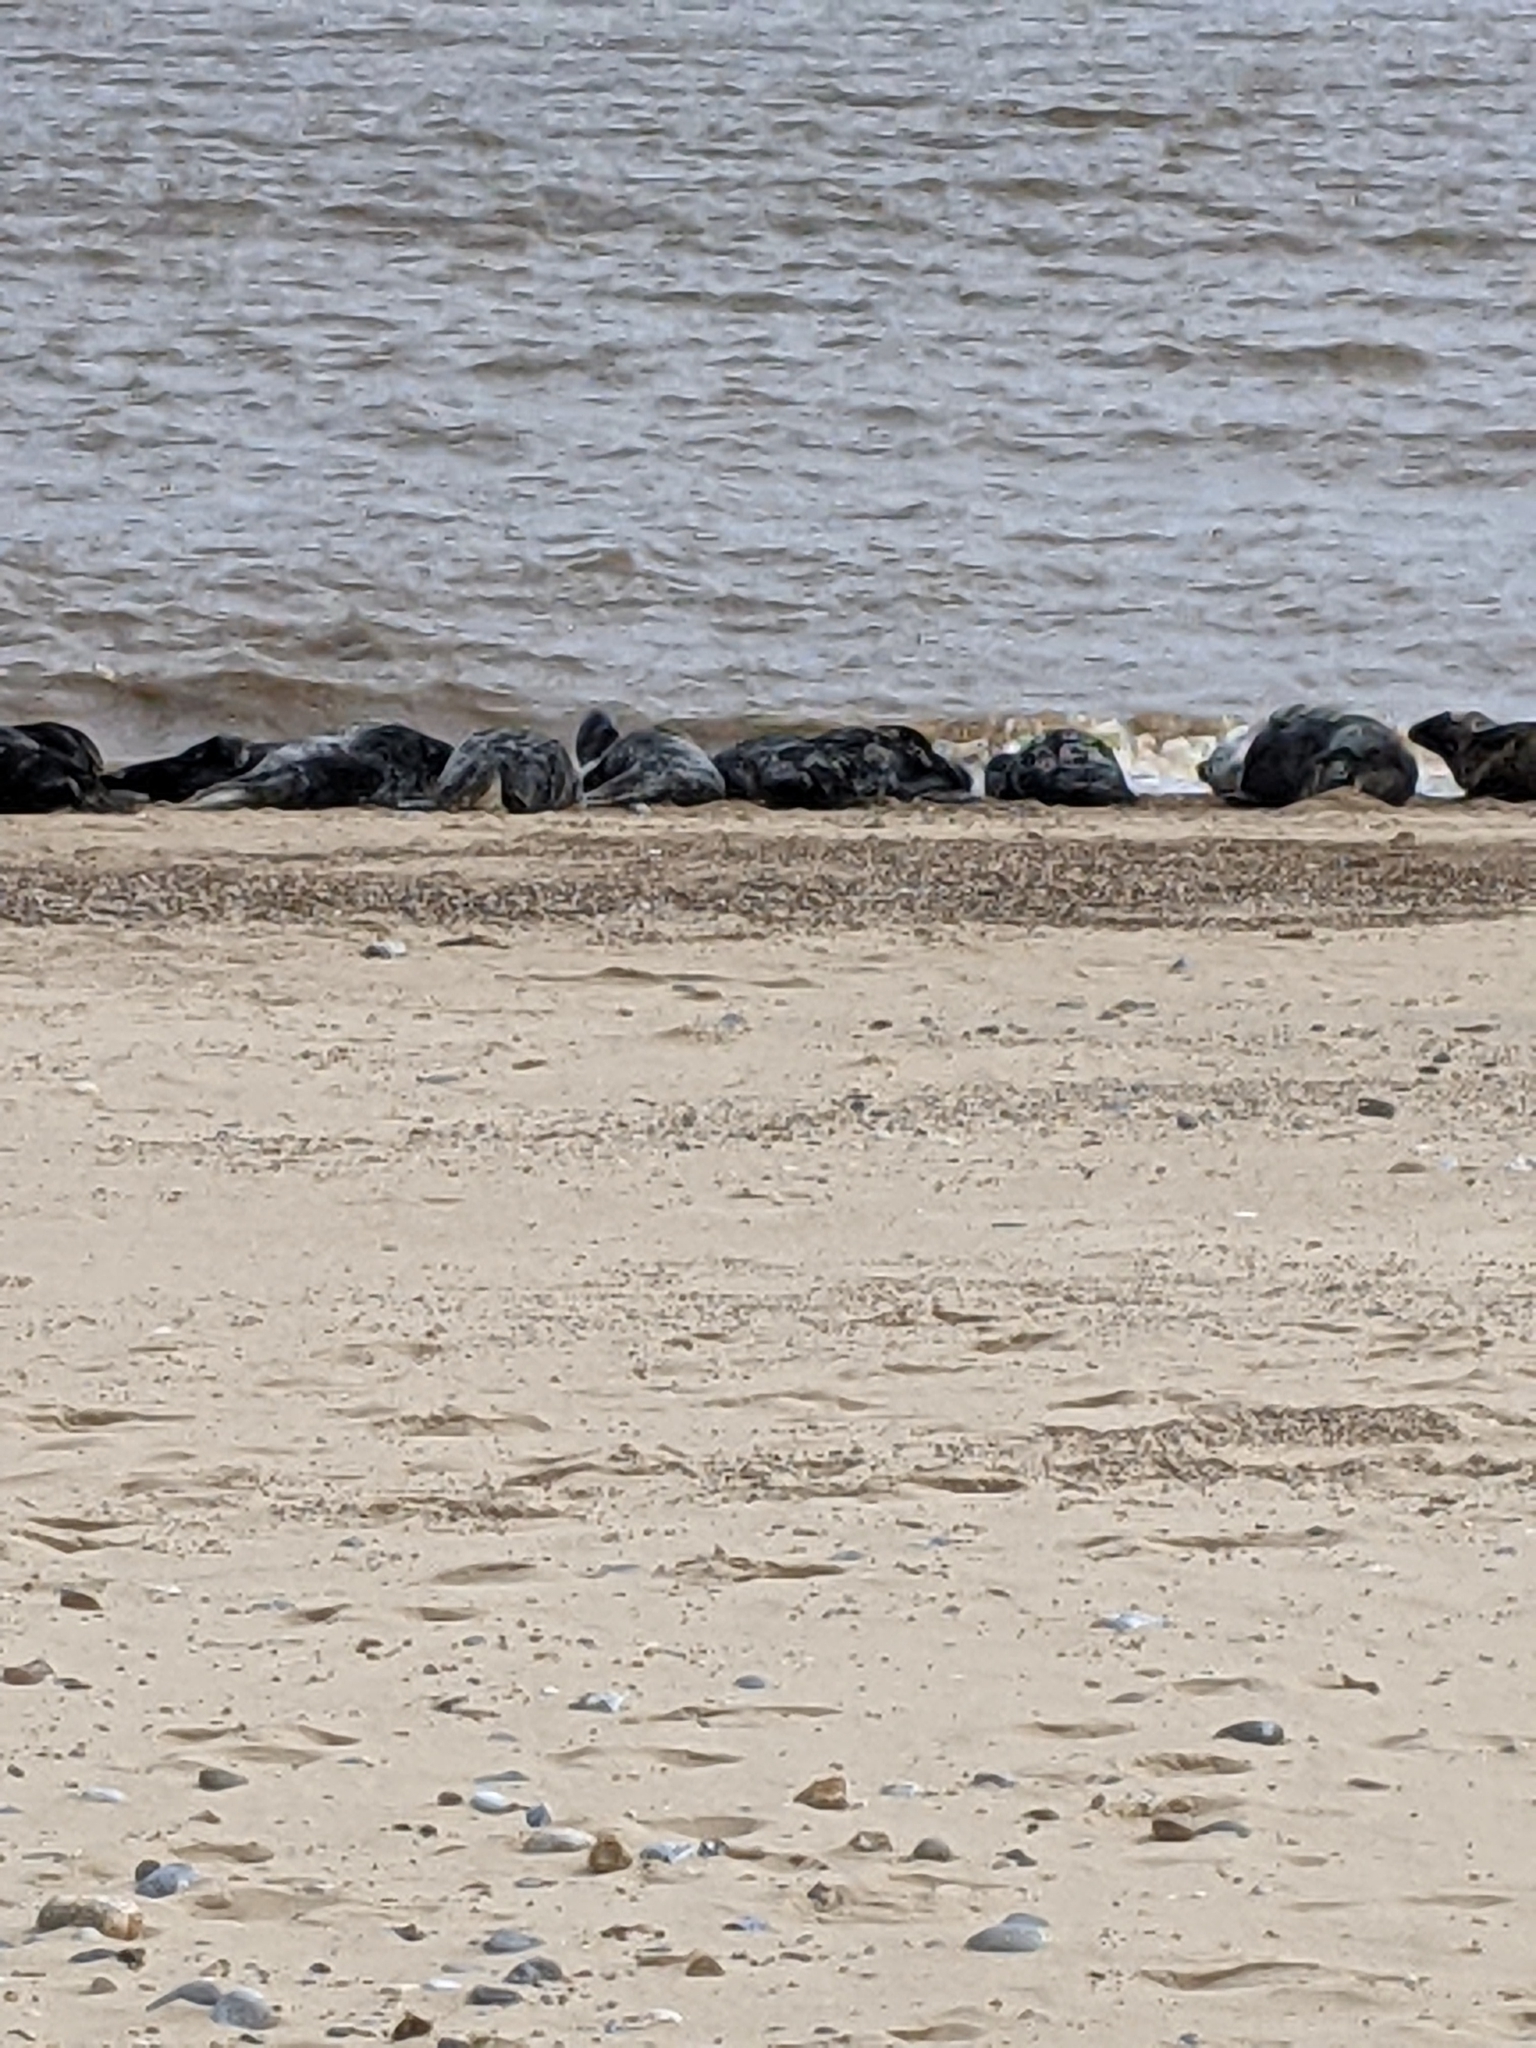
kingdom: Animalia
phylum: Chordata
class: Mammalia
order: Carnivora
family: Phocidae
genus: Halichoerus
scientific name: Halichoerus grypus
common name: Grey seal
